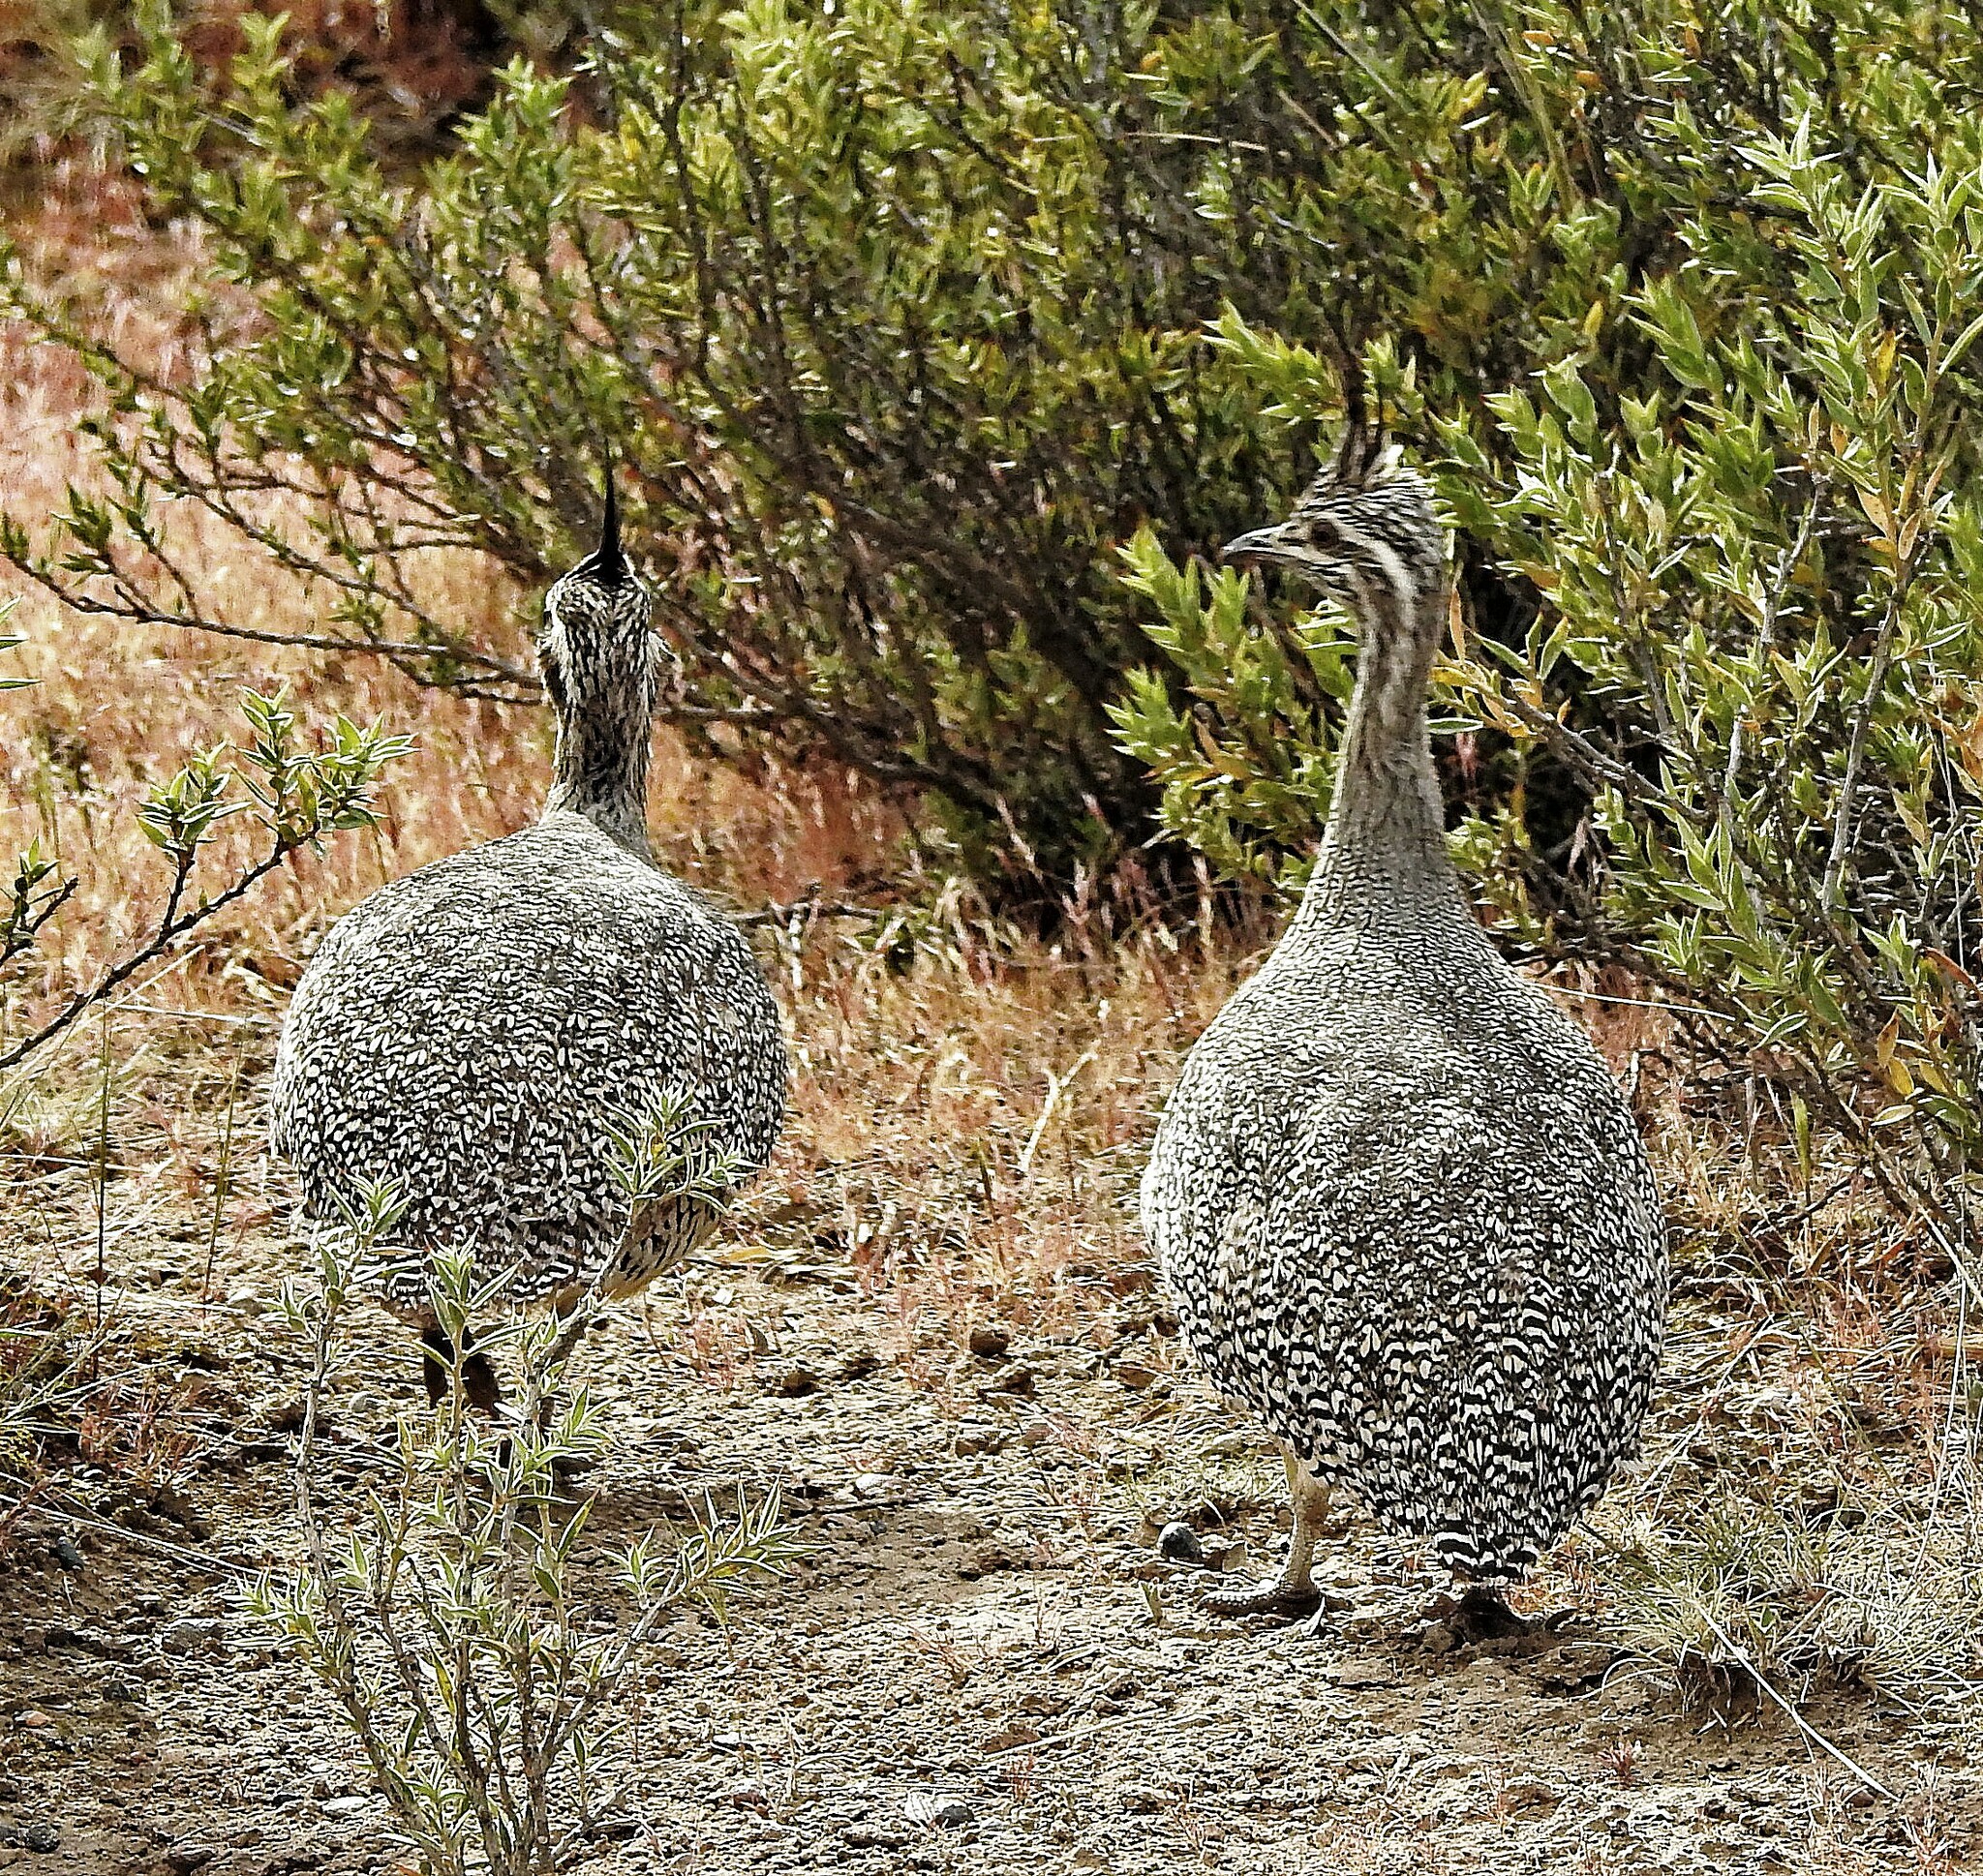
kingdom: Animalia
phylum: Chordata
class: Aves
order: Tinamiformes
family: Tinamidae
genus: Eudromia
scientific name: Eudromia elegans
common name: Elegant crested tinamou
